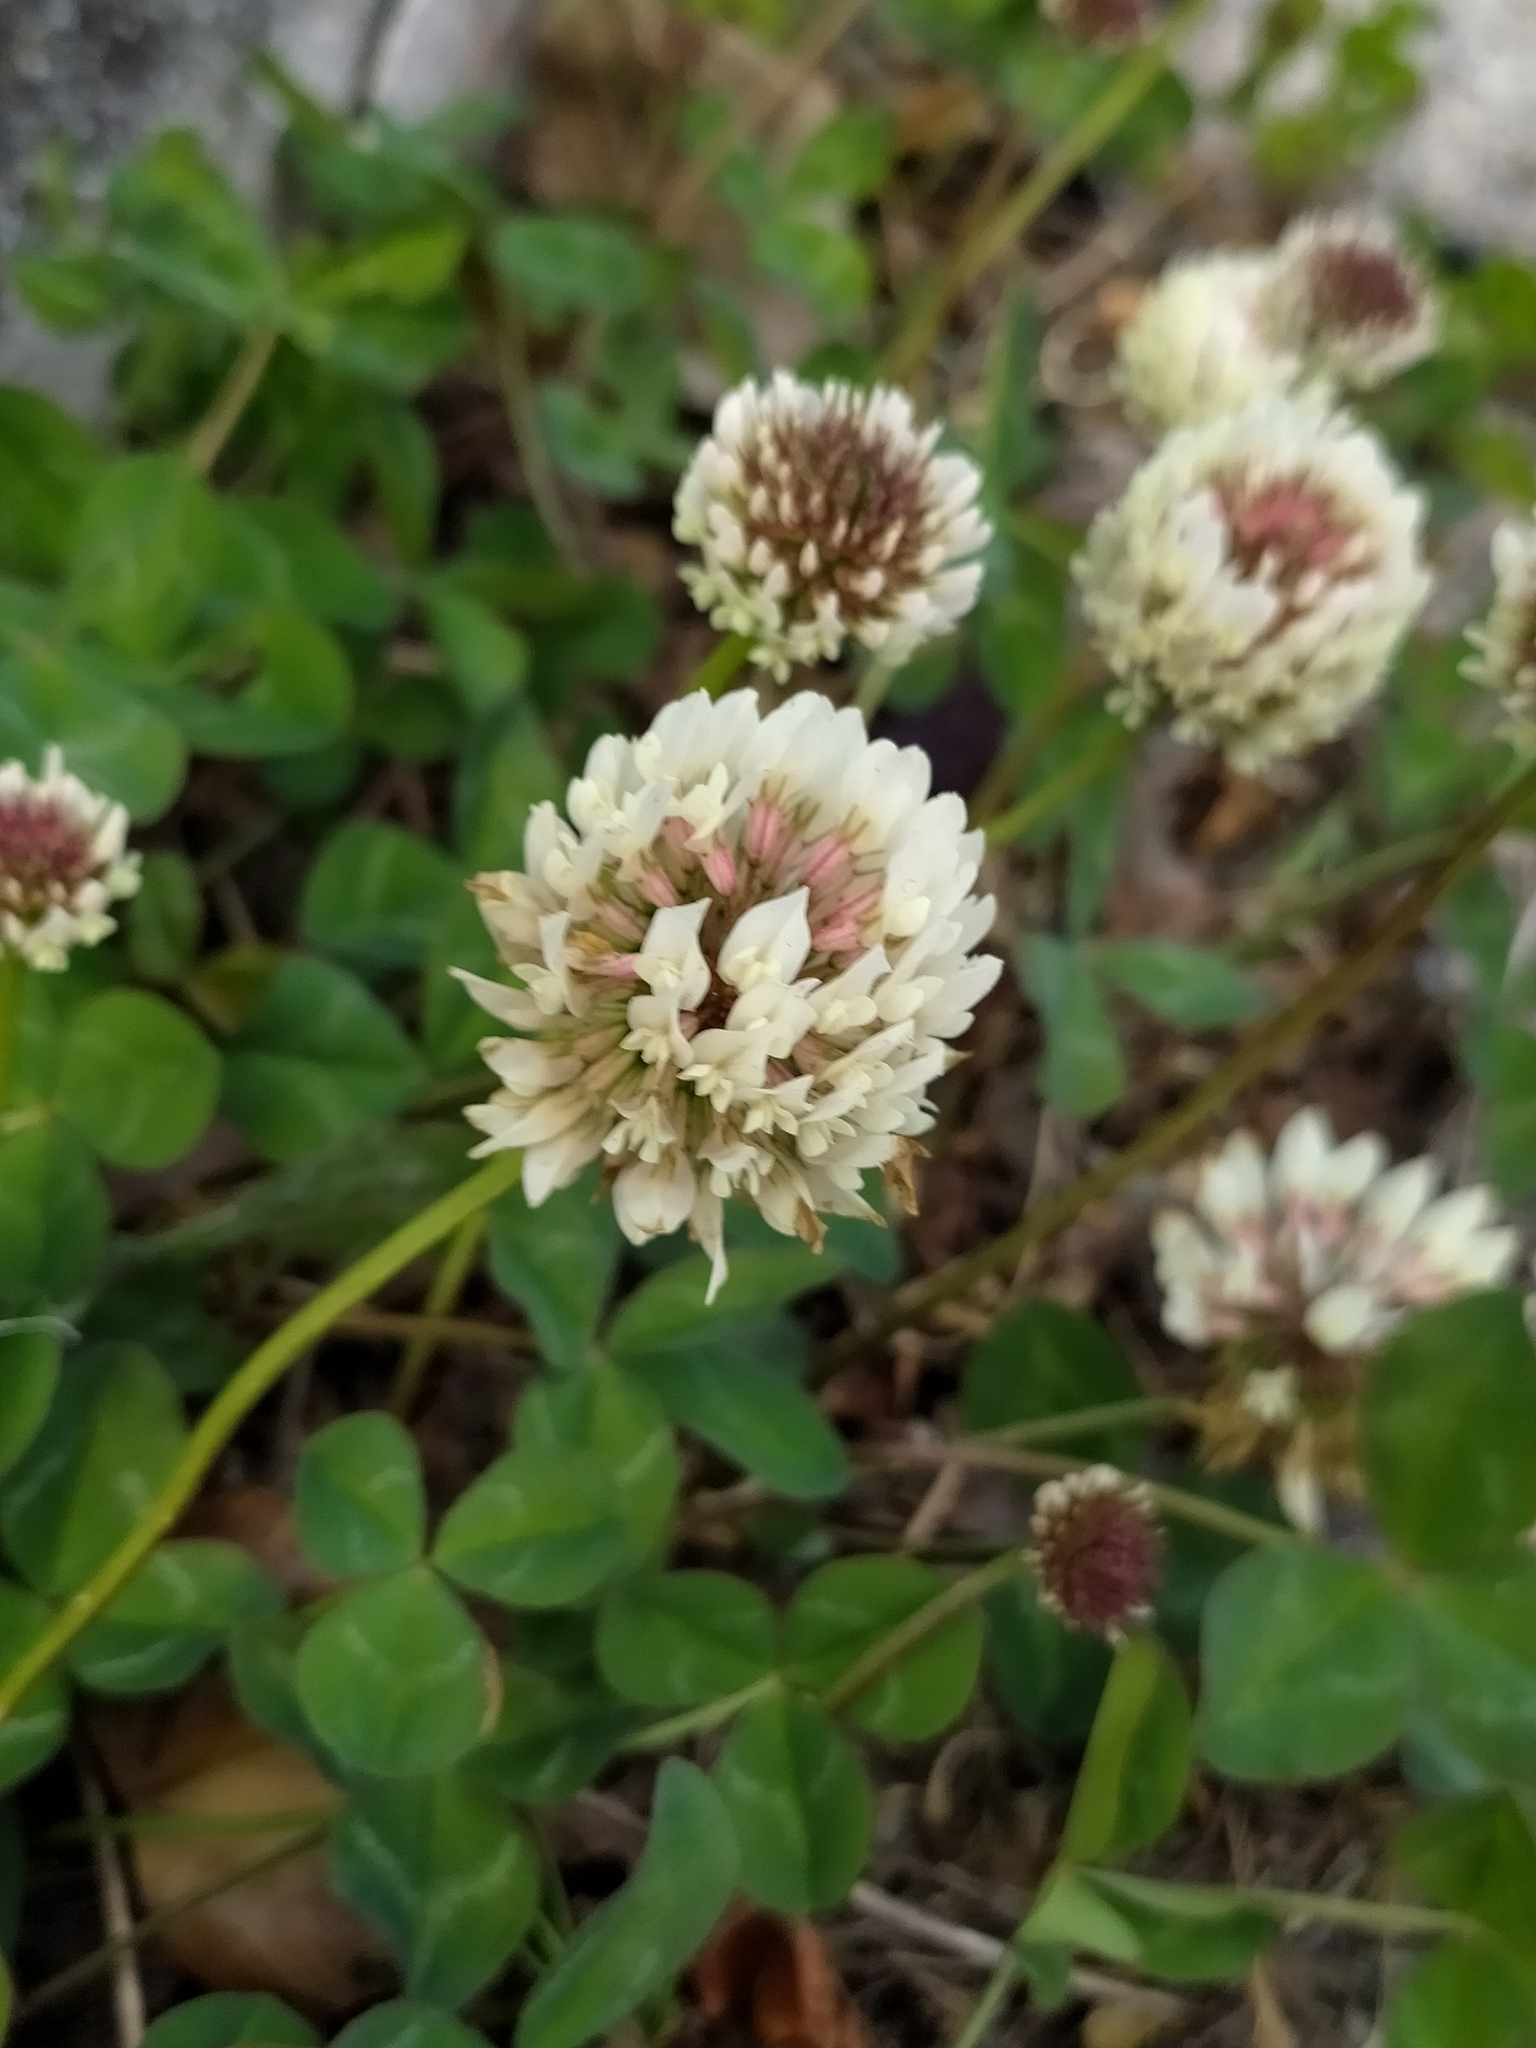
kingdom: Plantae
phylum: Tracheophyta
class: Magnoliopsida
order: Fabales
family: Fabaceae
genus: Trifolium
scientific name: Trifolium repens
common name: White clover
